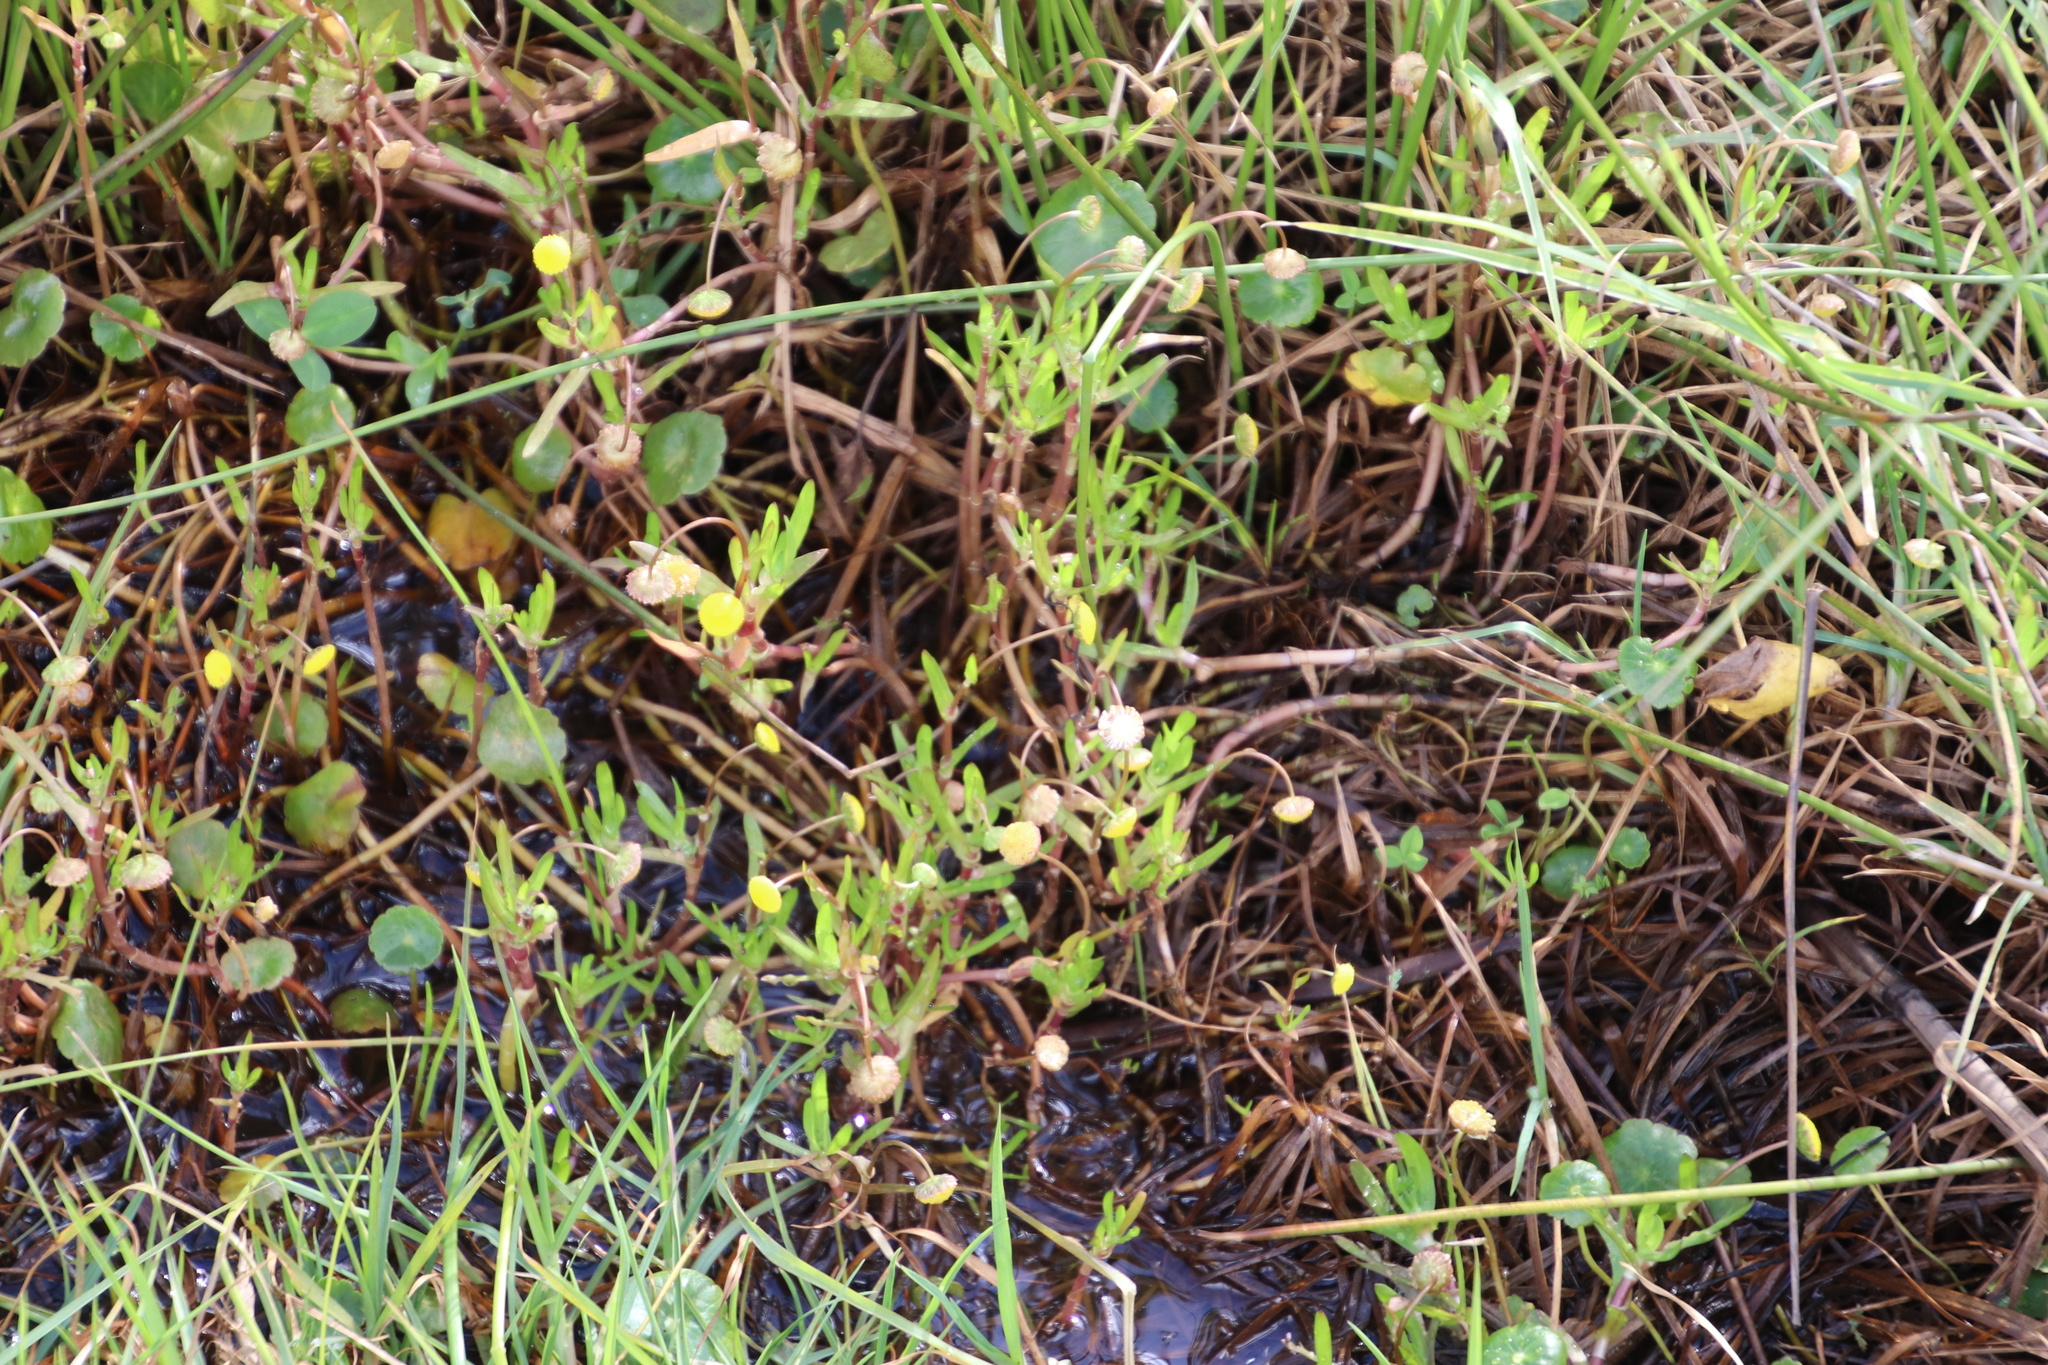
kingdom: Plantae
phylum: Tracheophyta
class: Magnoliopsida
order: Asterales
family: Asteraceae
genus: Cotula
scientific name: Cotula coronopifolia
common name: Buttonweed
